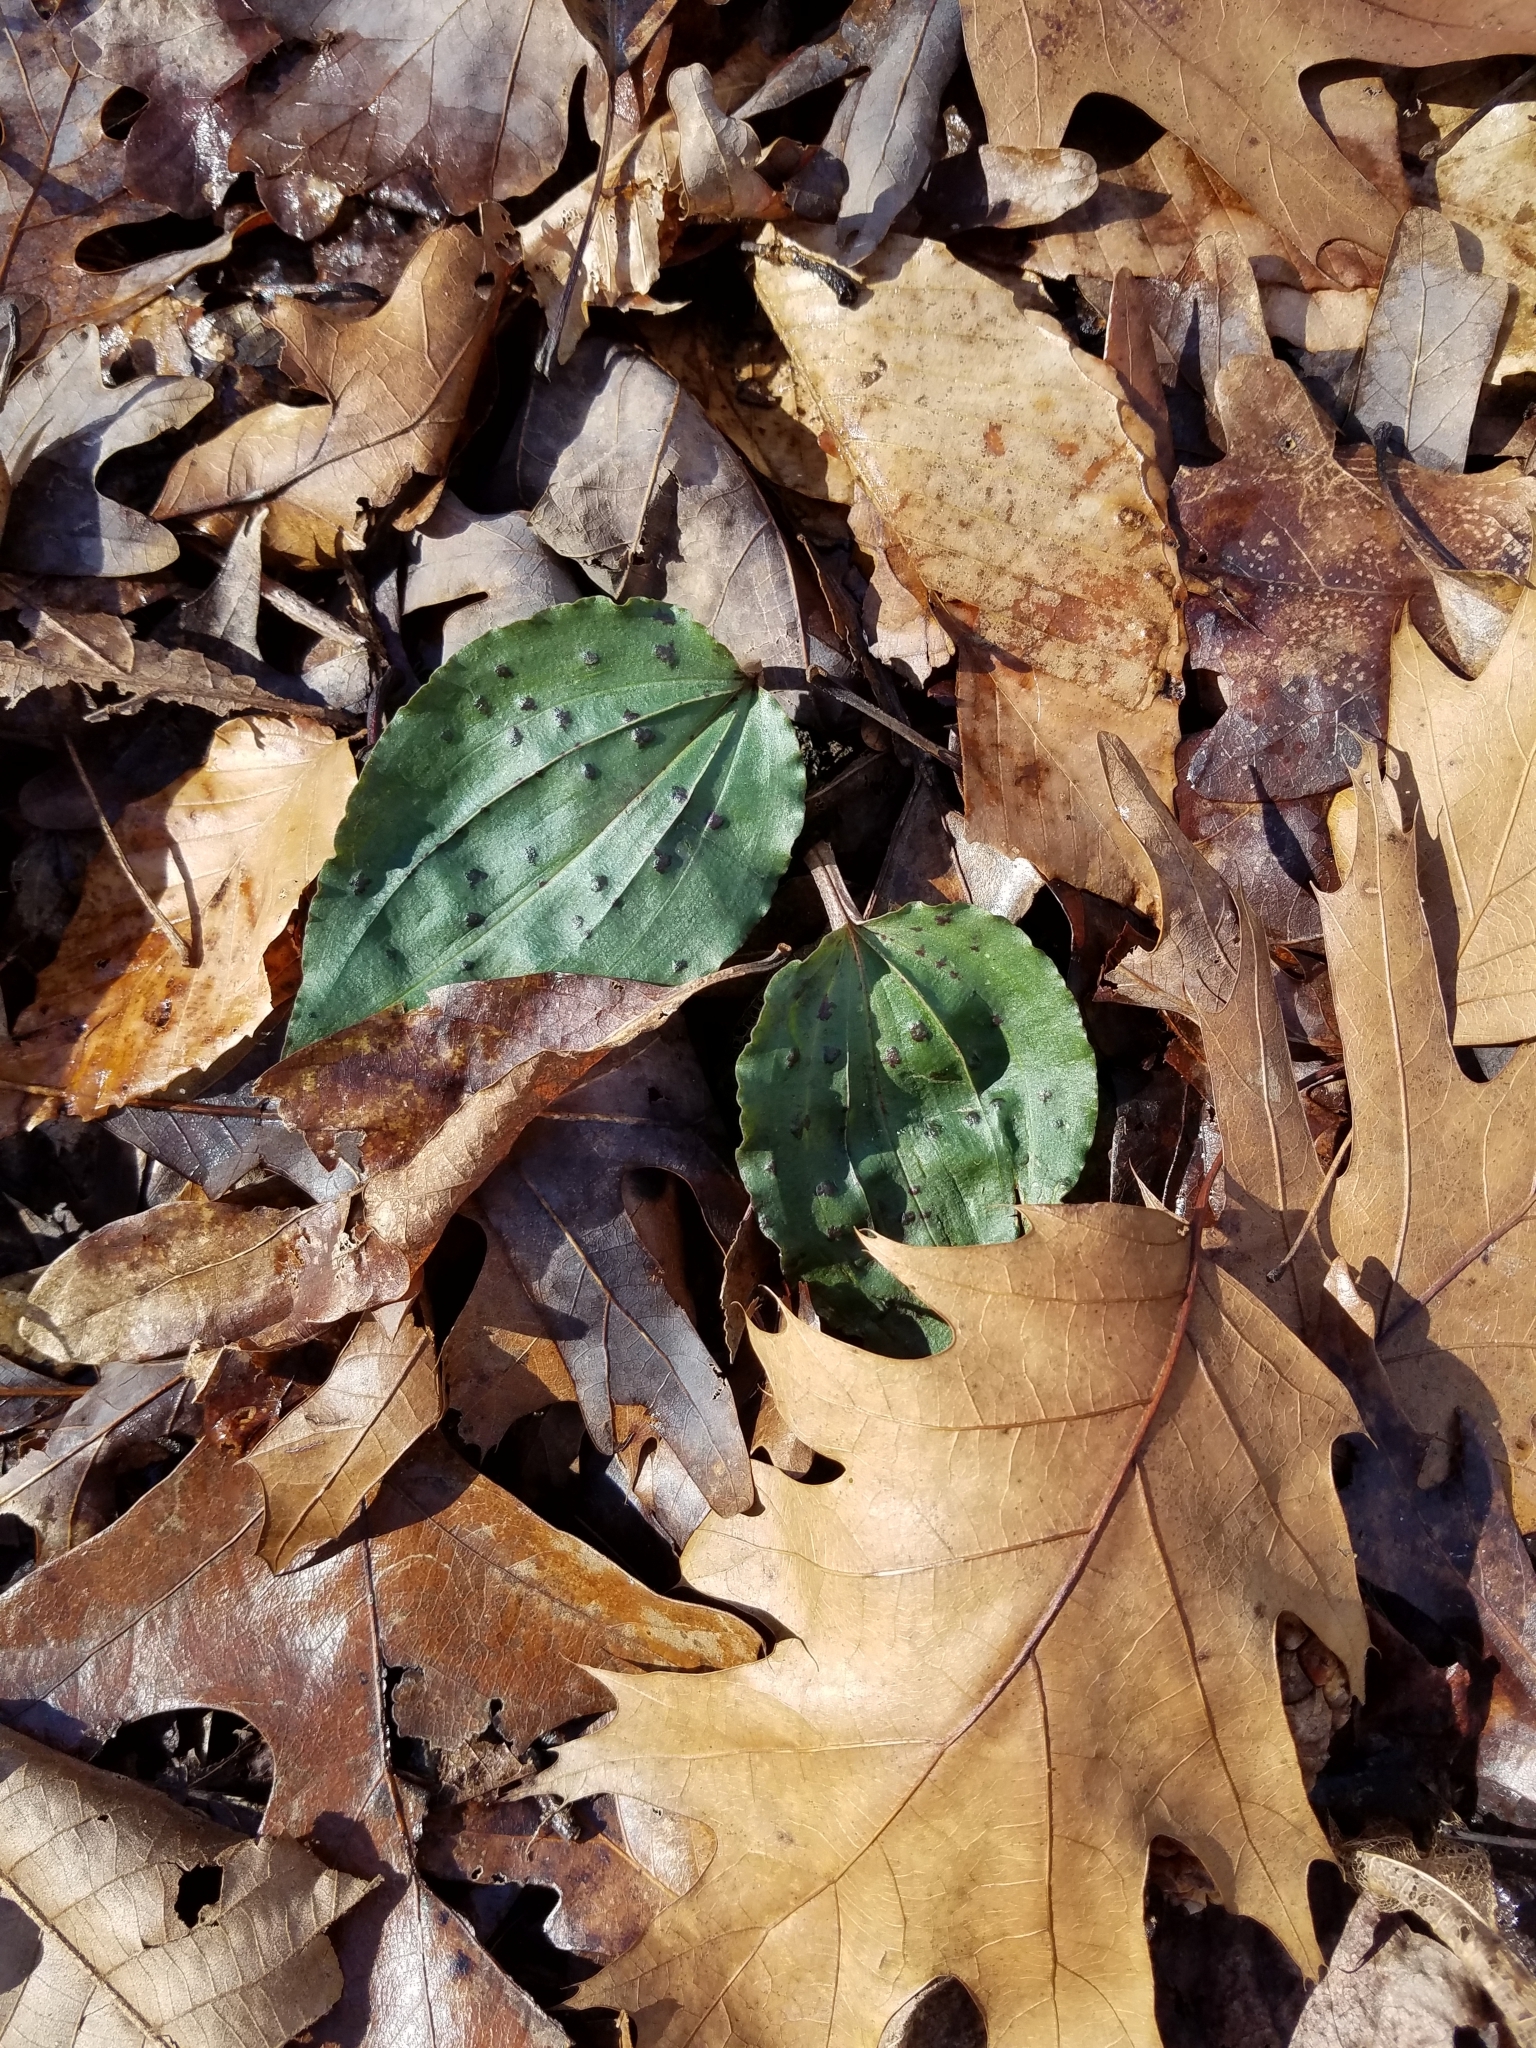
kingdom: Plantae
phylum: Tracheophyta
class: Liliopsida
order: Asparagales
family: Orchidaceae
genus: Tipularia
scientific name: Tipularia discolor
